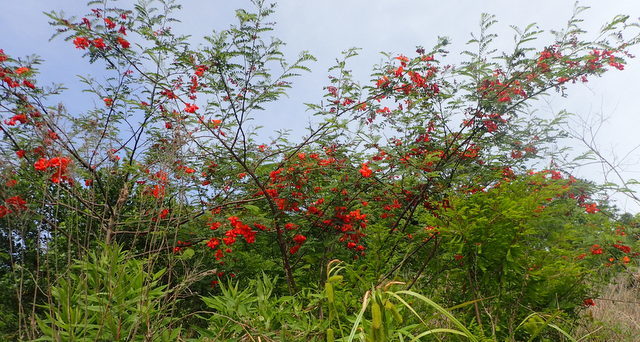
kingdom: Plantae
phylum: Tracheophyta
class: Magnoliopsida
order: Fabales
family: Fabaceae
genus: Sesbania
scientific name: Sesbania punicea
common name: Rattlebox
